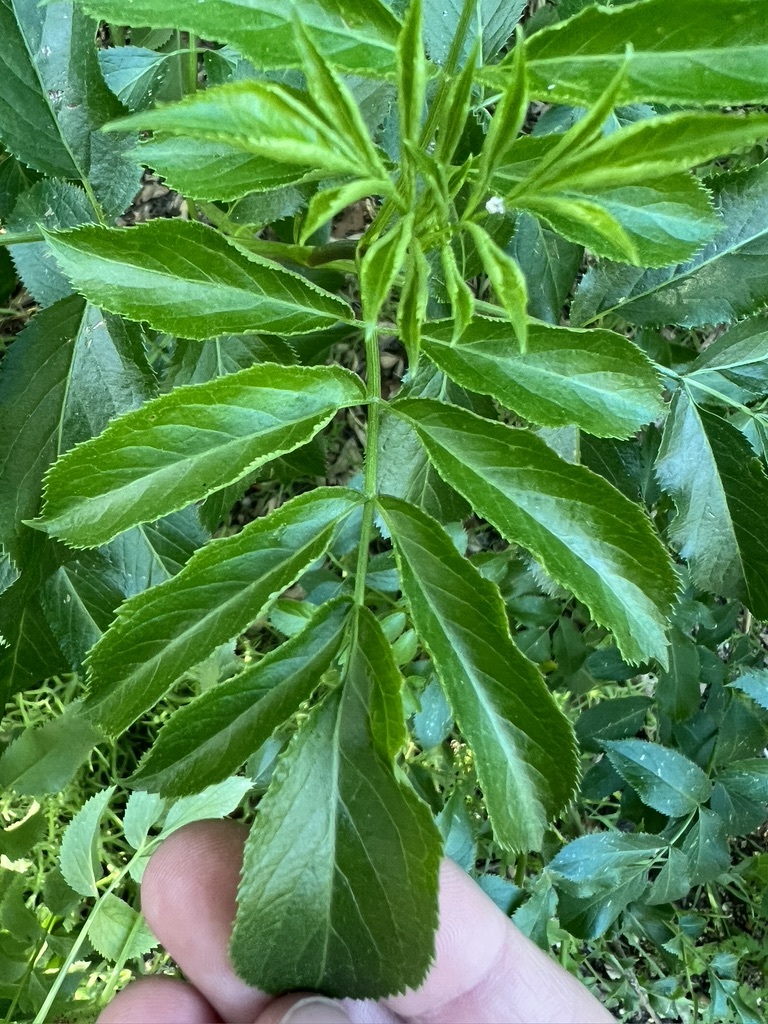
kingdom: Plantae
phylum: Tracheophyta
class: Magnoliopsida
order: Dipsacales
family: Viburnaceae
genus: Sambucus
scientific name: Sambucus cerulea
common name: Blue elder
